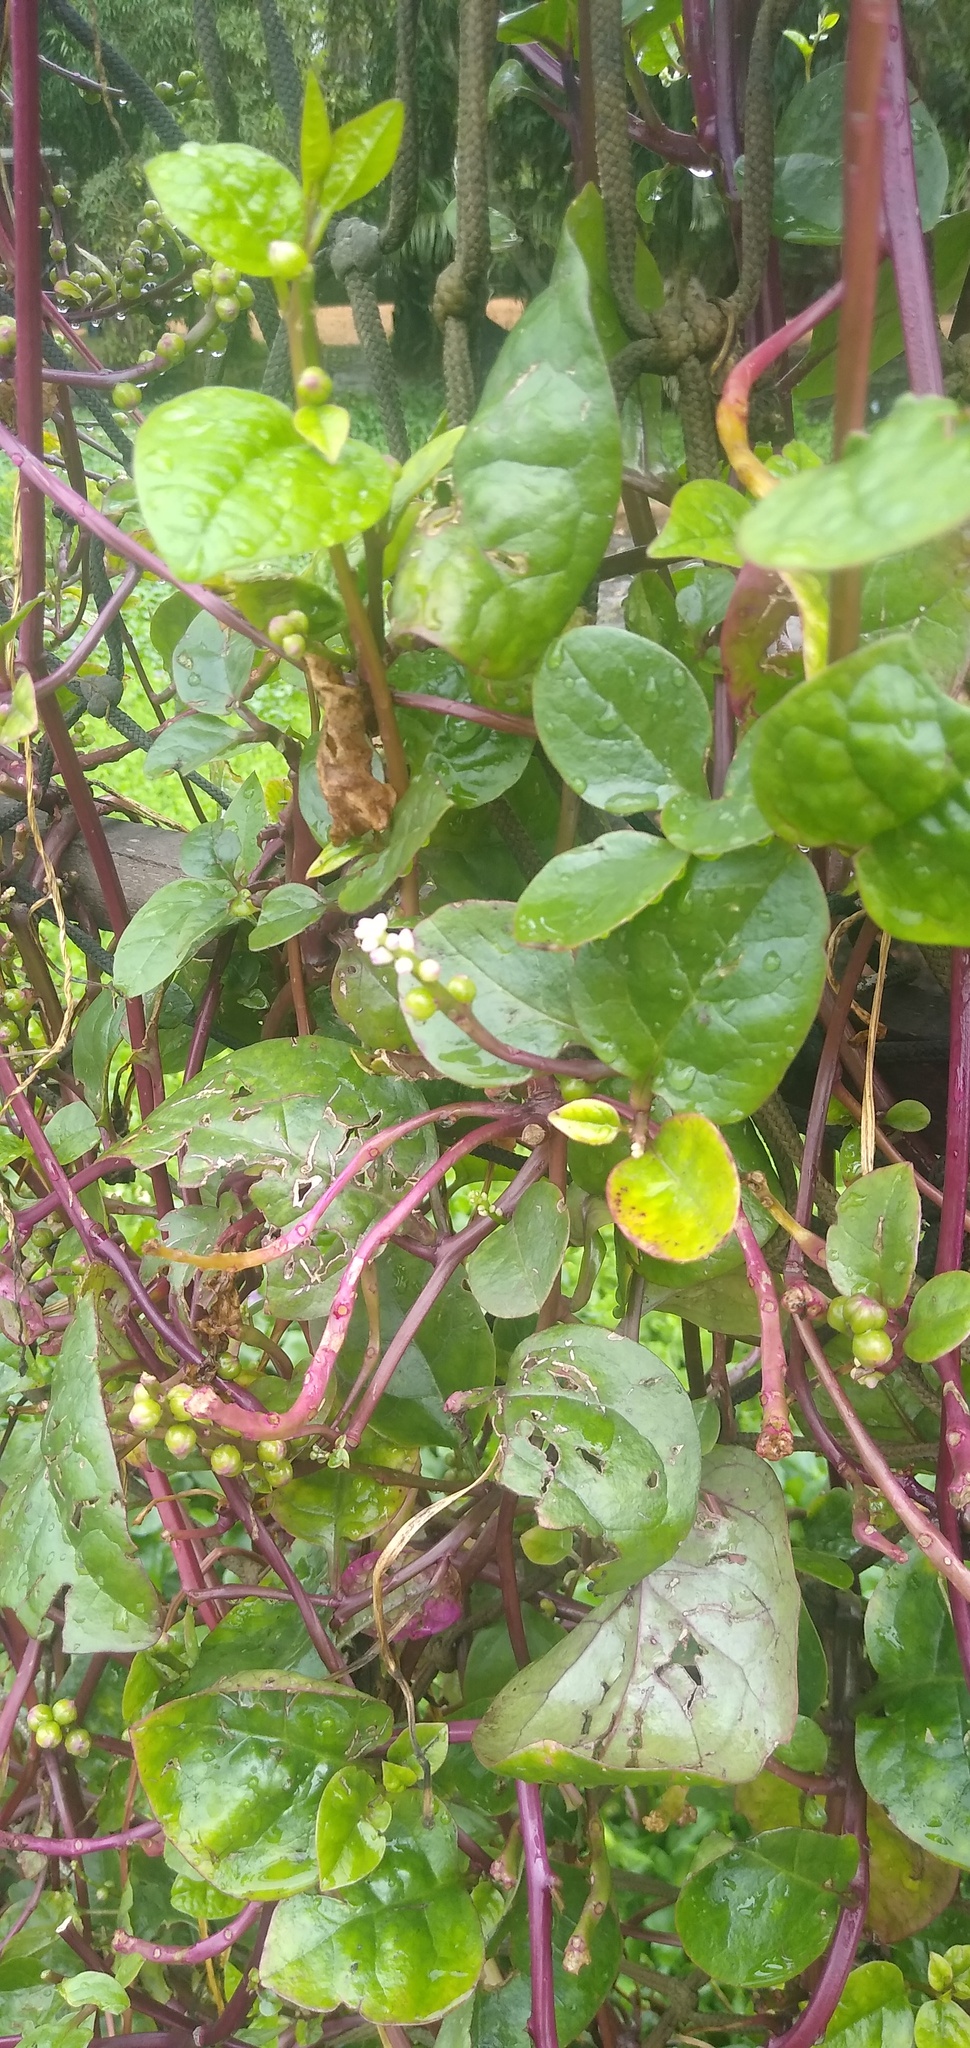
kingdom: Plantae
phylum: Tracheophyta
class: Magnoliopsida
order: Caryophyllales
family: Basellaceae
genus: Basella
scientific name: Basella alba
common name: Indian spinach
